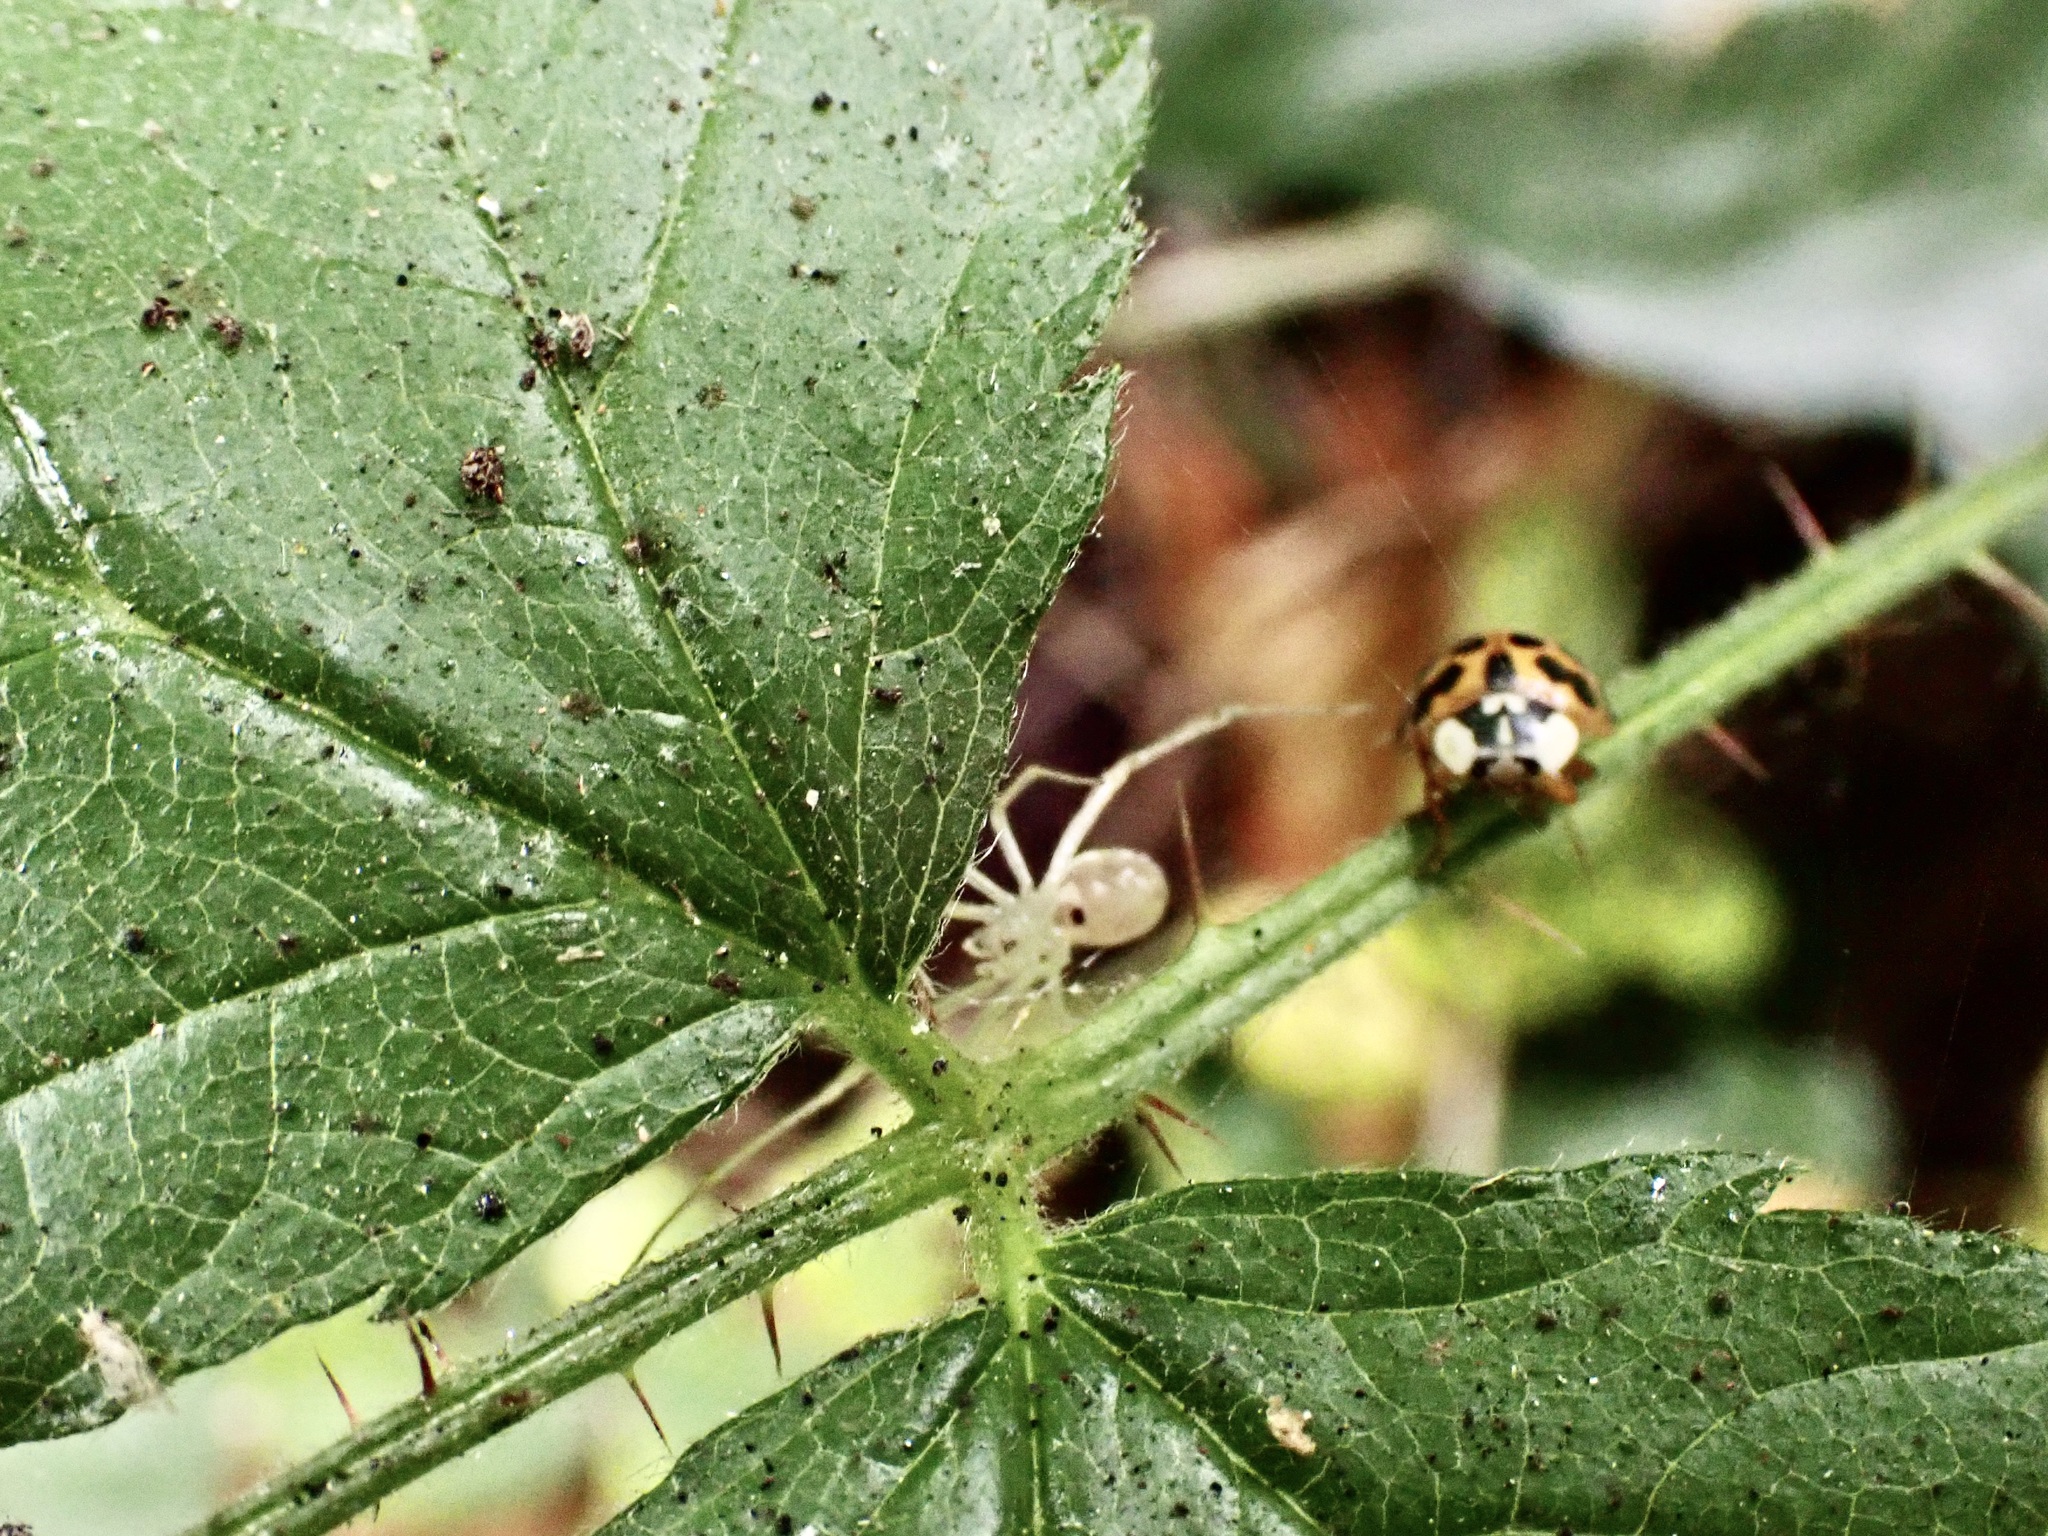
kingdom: Animalia
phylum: Arthropoda
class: Insecta
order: Coleoptera
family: Coccinellidae
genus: Harmonia
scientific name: Harmonia axyridis
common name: Harlequin ladybird
